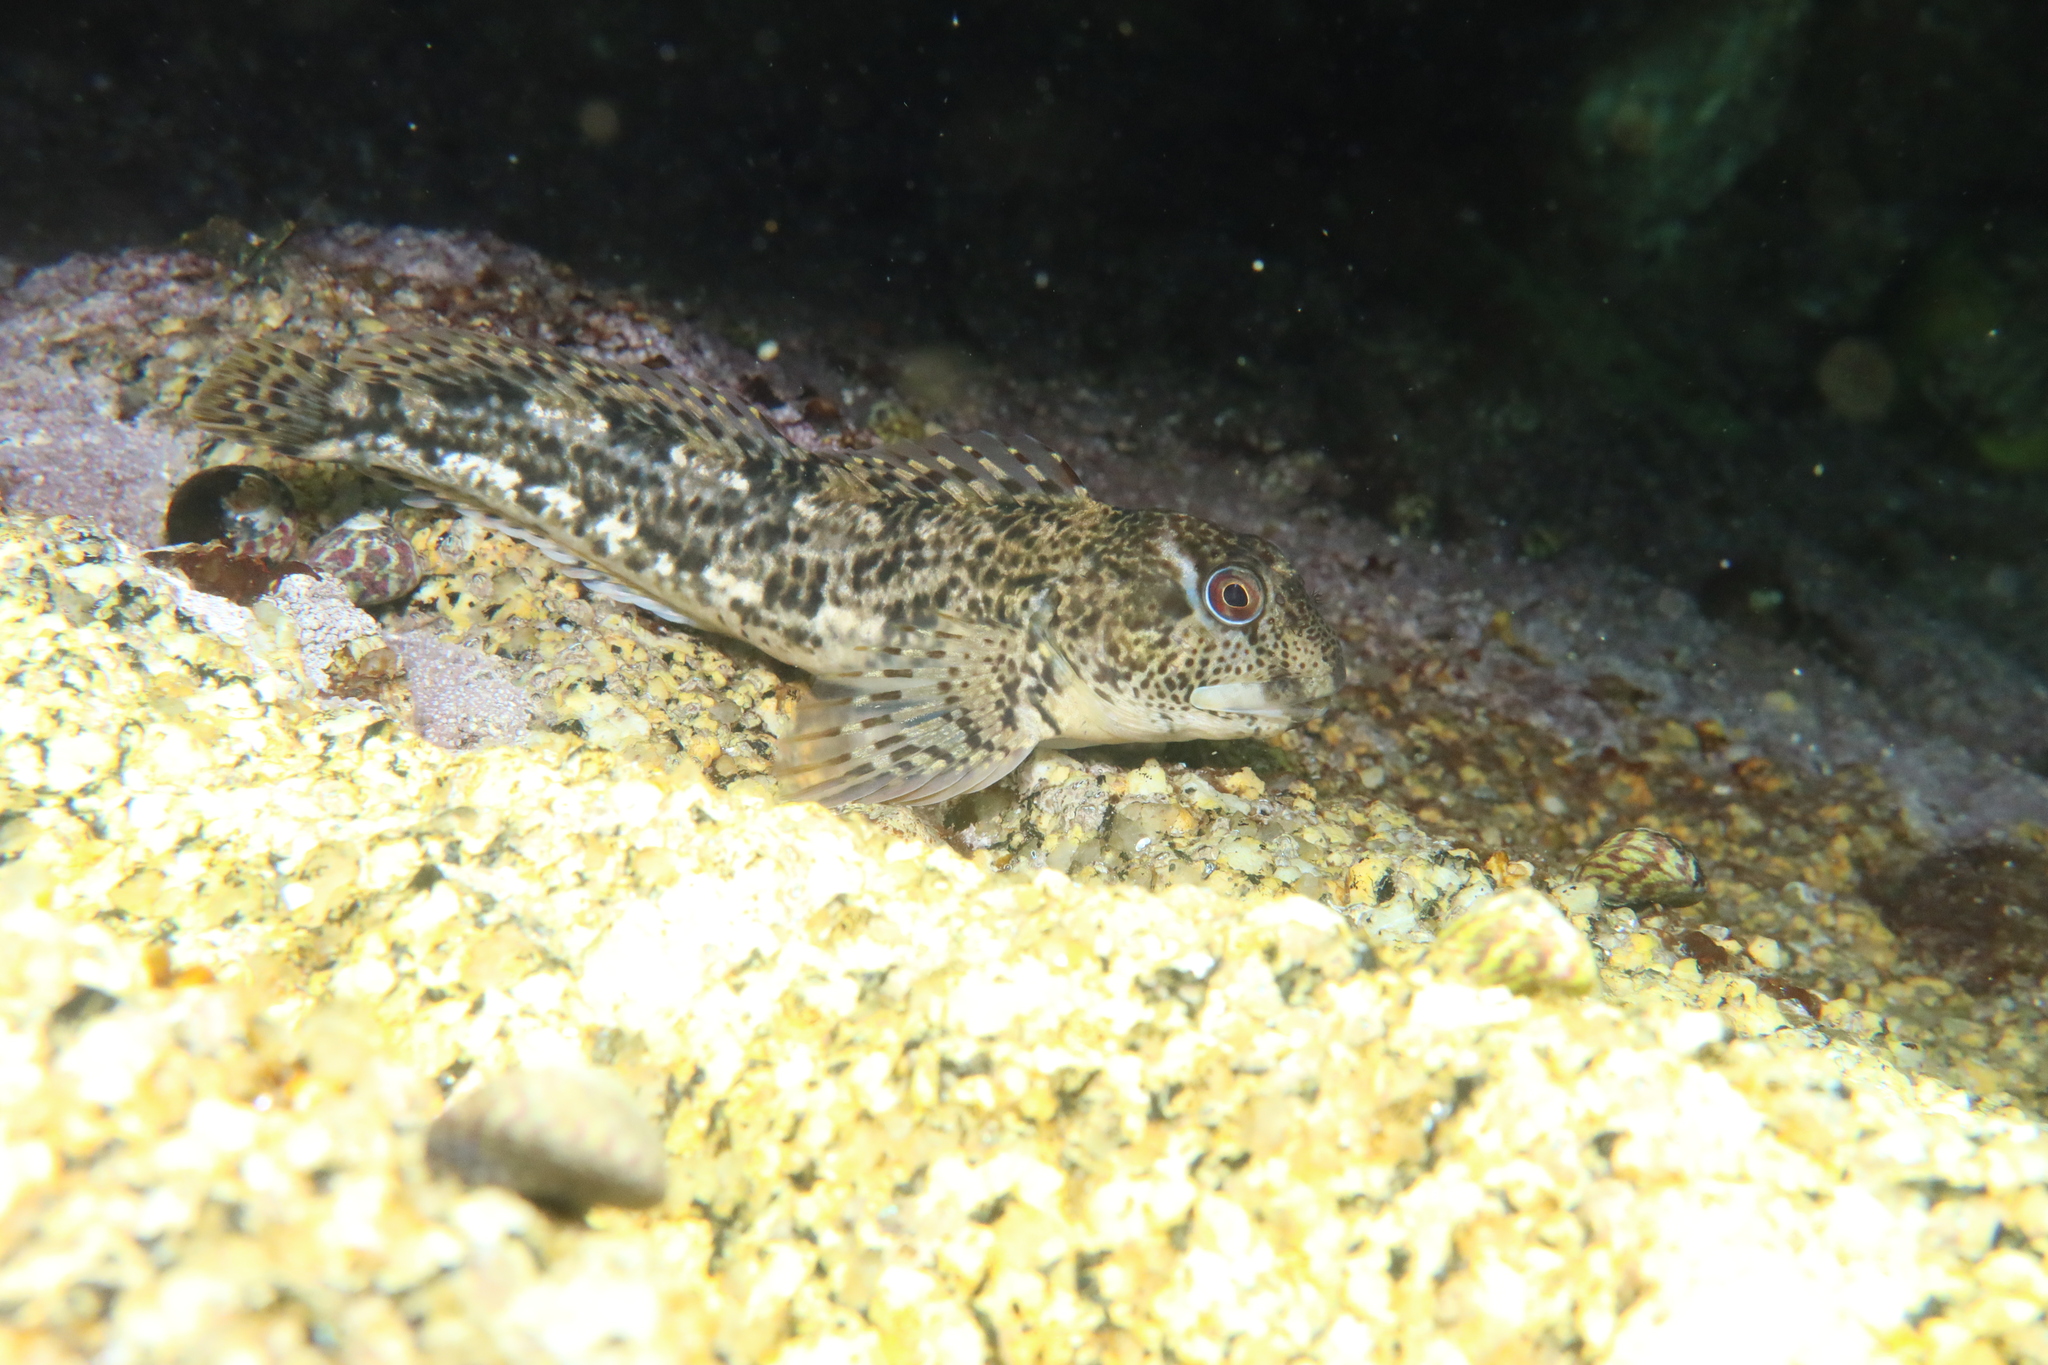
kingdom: Animalia
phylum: Chordata
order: Perciformes
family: Blenniidae
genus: Lipophrys
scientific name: Lipophrys pholis
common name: Shanny
